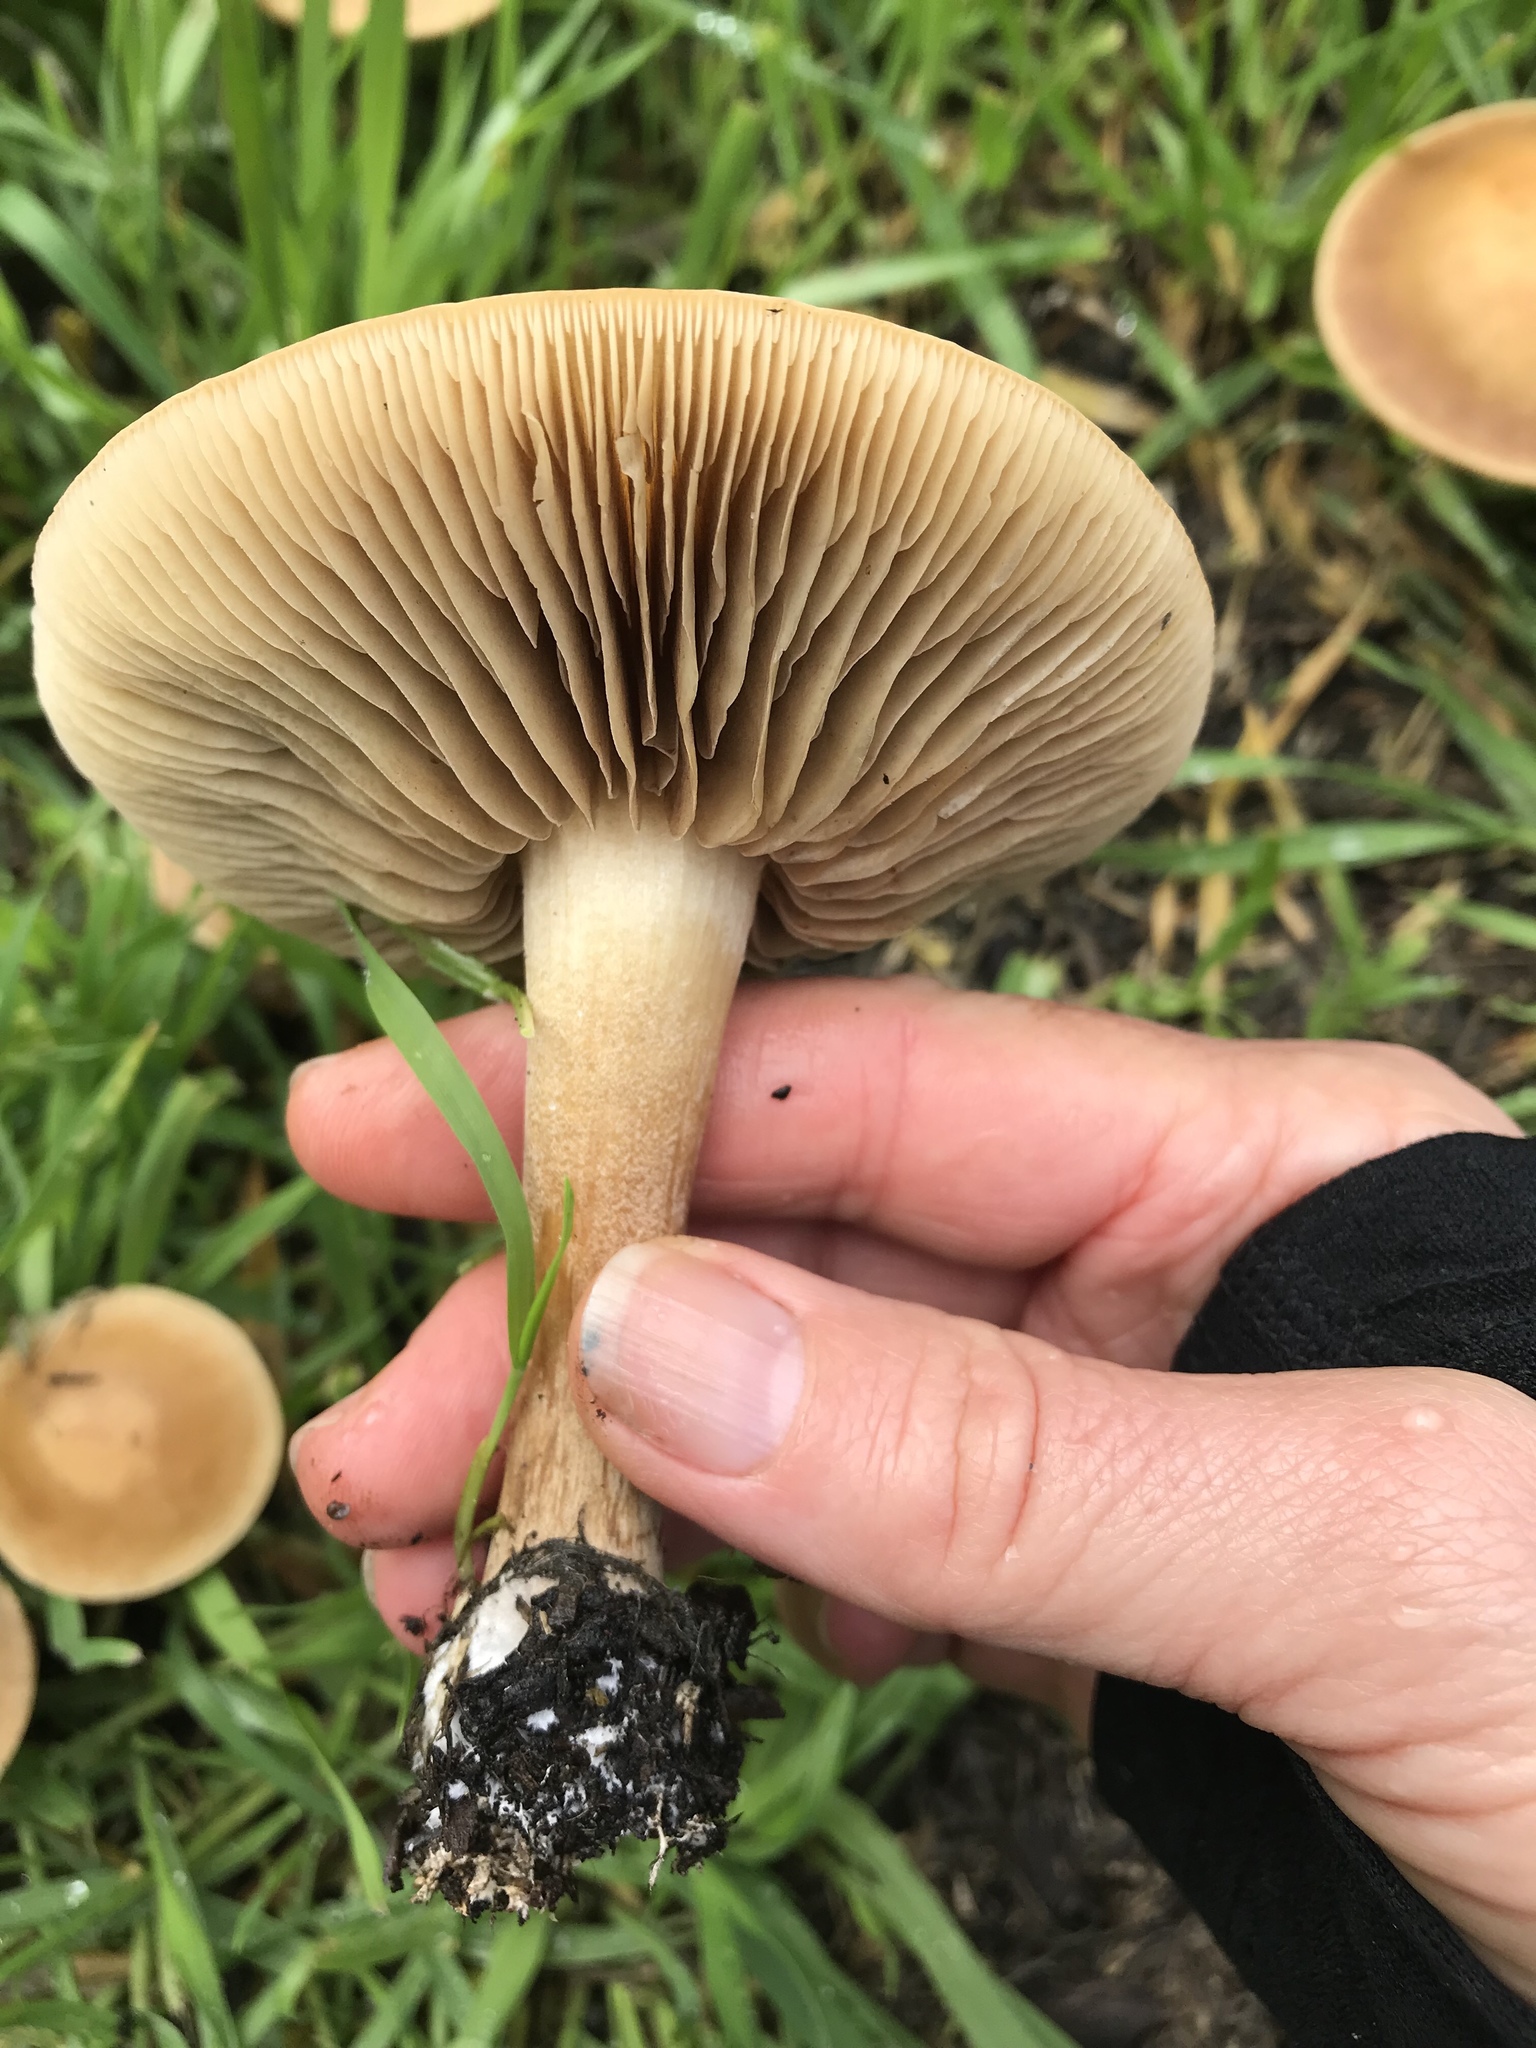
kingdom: Fungi
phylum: Basidiomycota
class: Agaricomycetes
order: Agaricales
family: Strophariaceae
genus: Agrocybe
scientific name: Agrocybe putaminum
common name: Mulch fieldcap
